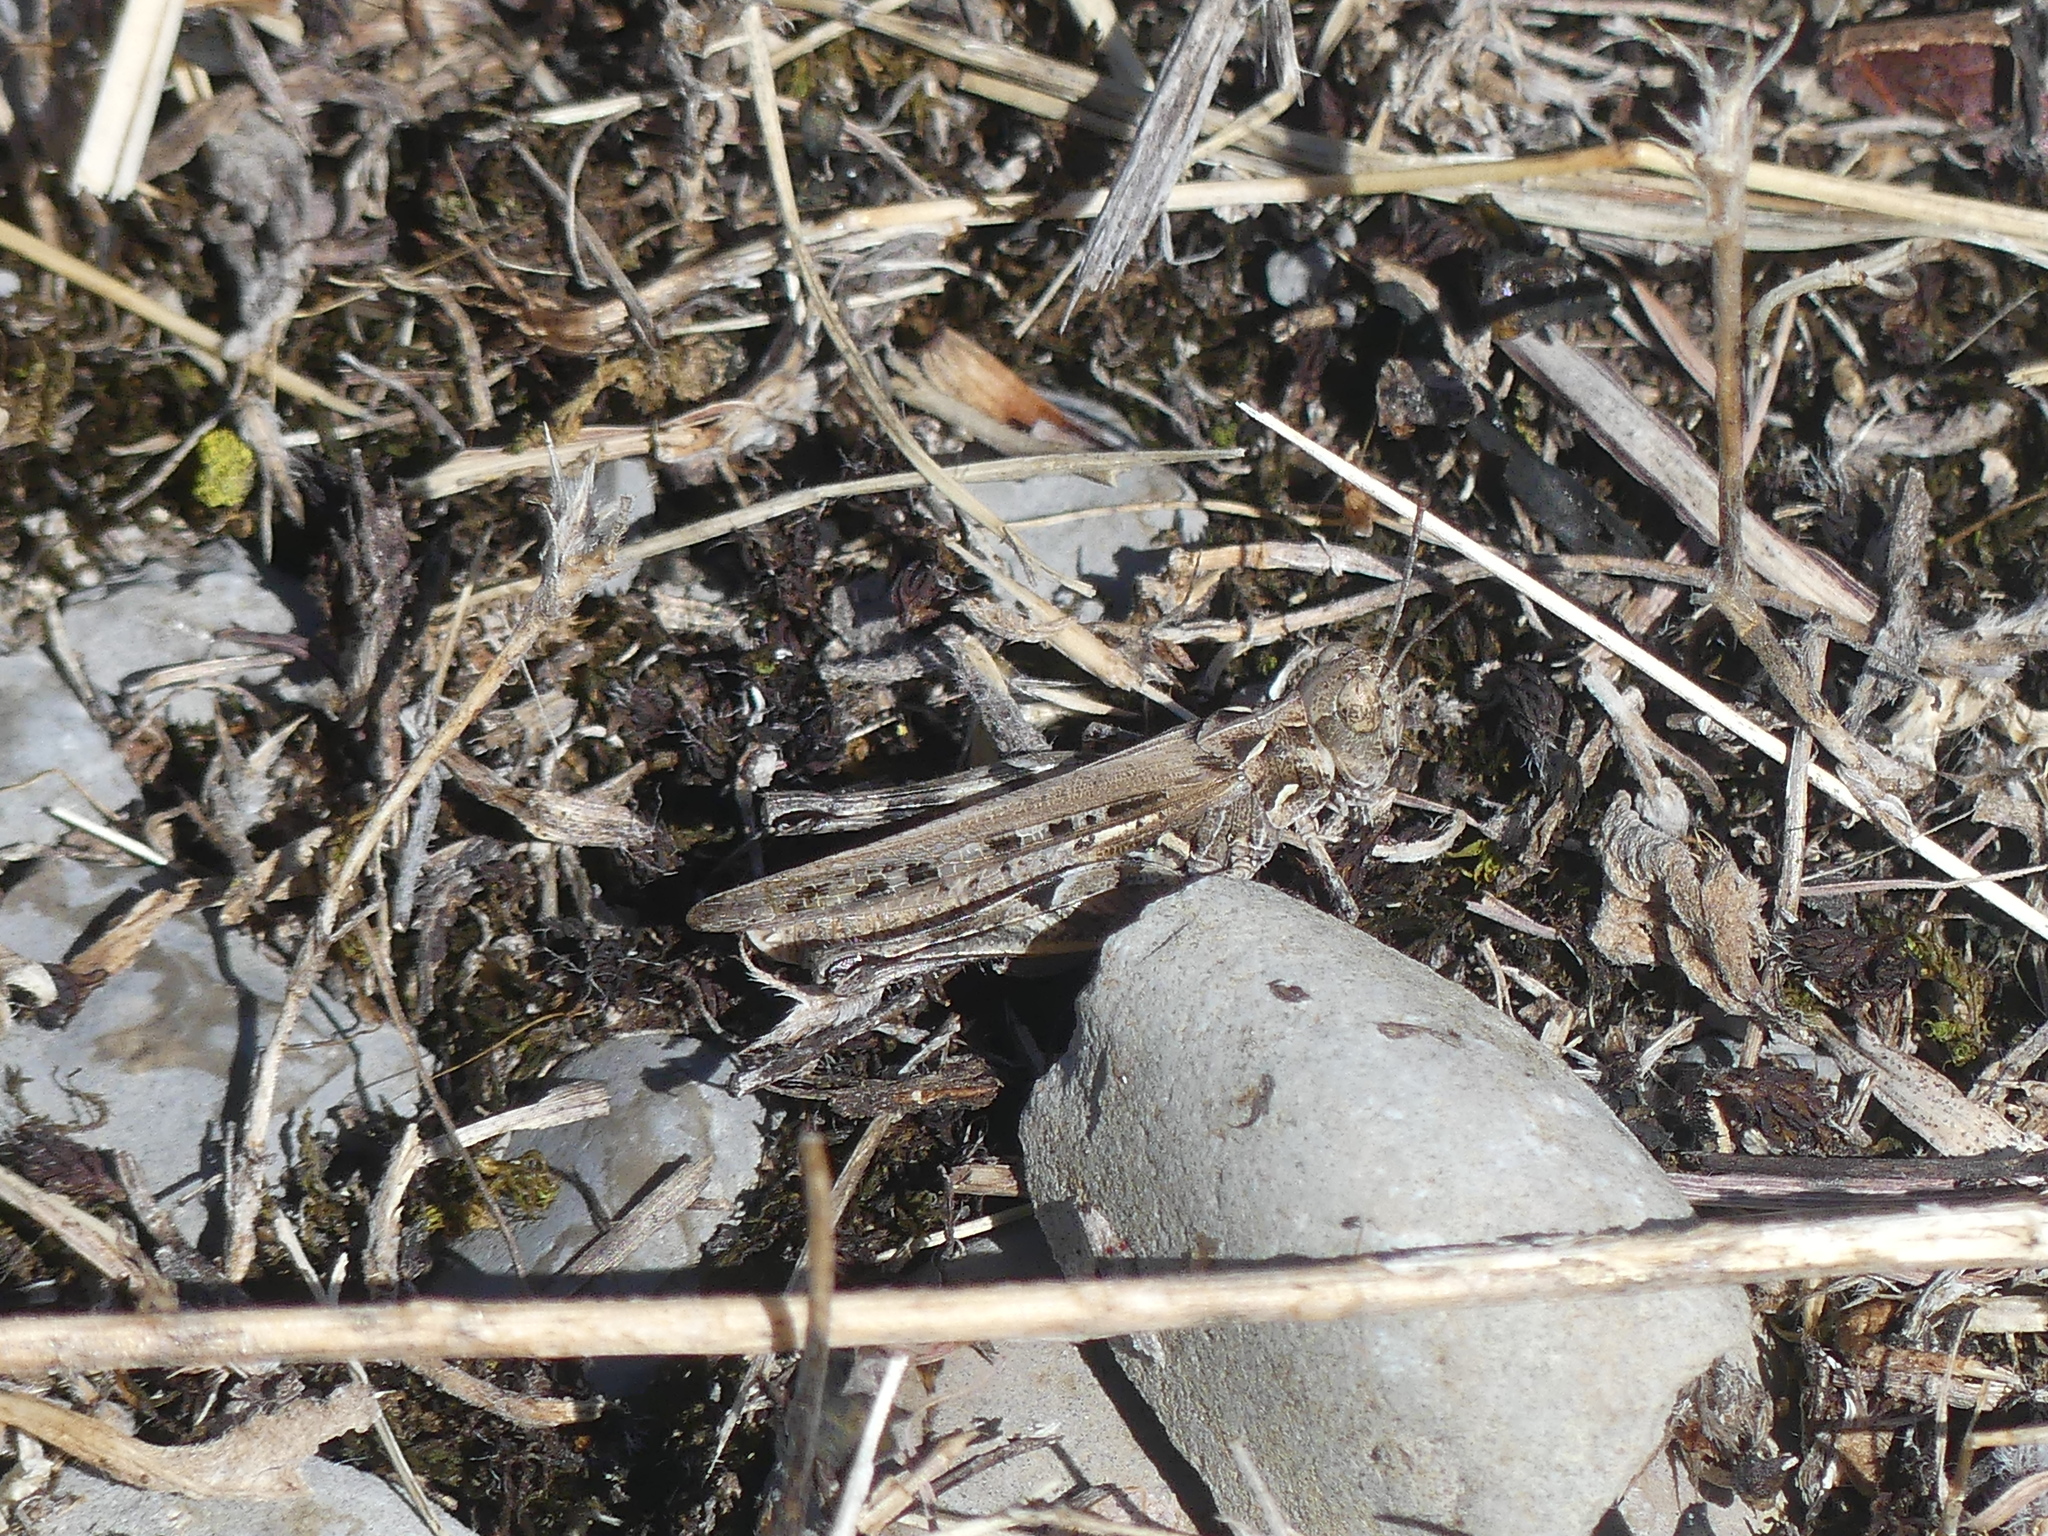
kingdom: Animalia
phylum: Arthropoda
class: Insecta
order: Orthoptera
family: Acrididae
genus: Dociostaurus
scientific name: Dociostaurus genei
